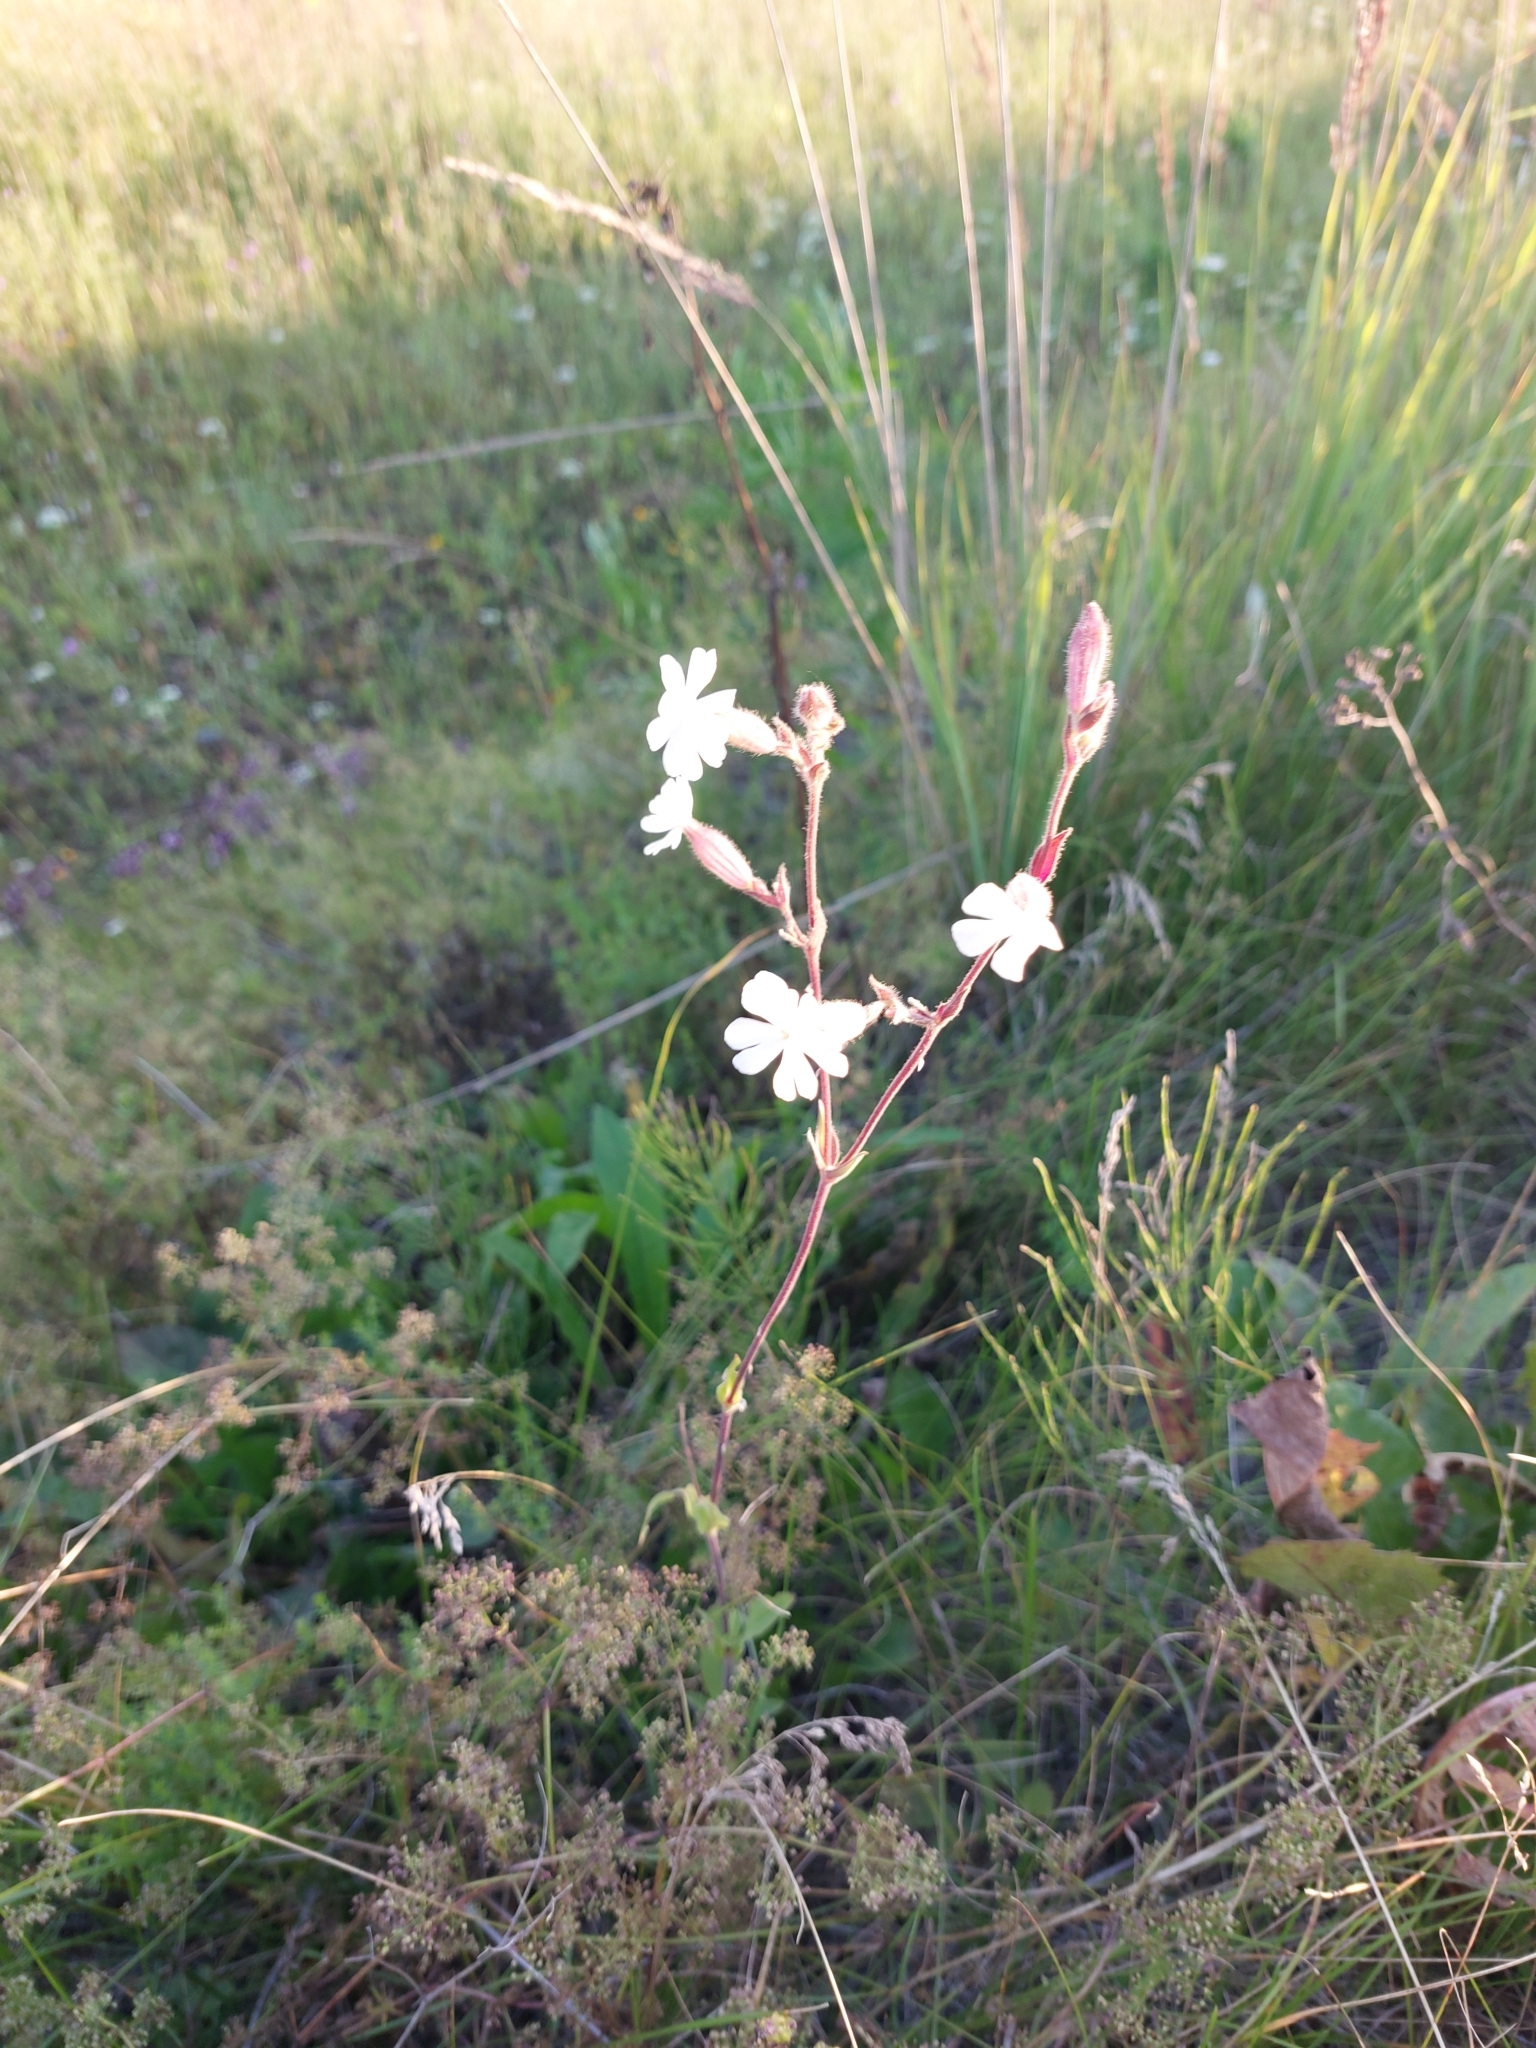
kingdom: Plantae
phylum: Tracheophyta
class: Magnoliopsida
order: Caryophyllales
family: Caryophyllaceae
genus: Silene
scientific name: Silene latifolia
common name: White campion
